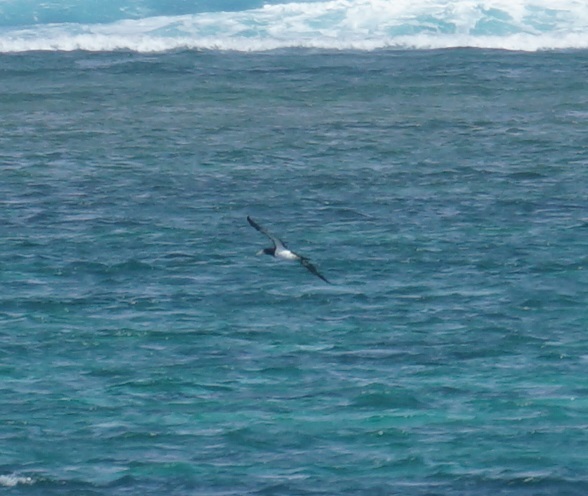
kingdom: Animalia
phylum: Chordata
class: Aves
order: Suliformes
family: Sulidae
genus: Sula
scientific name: Sula leucogaster
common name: Brown booby
